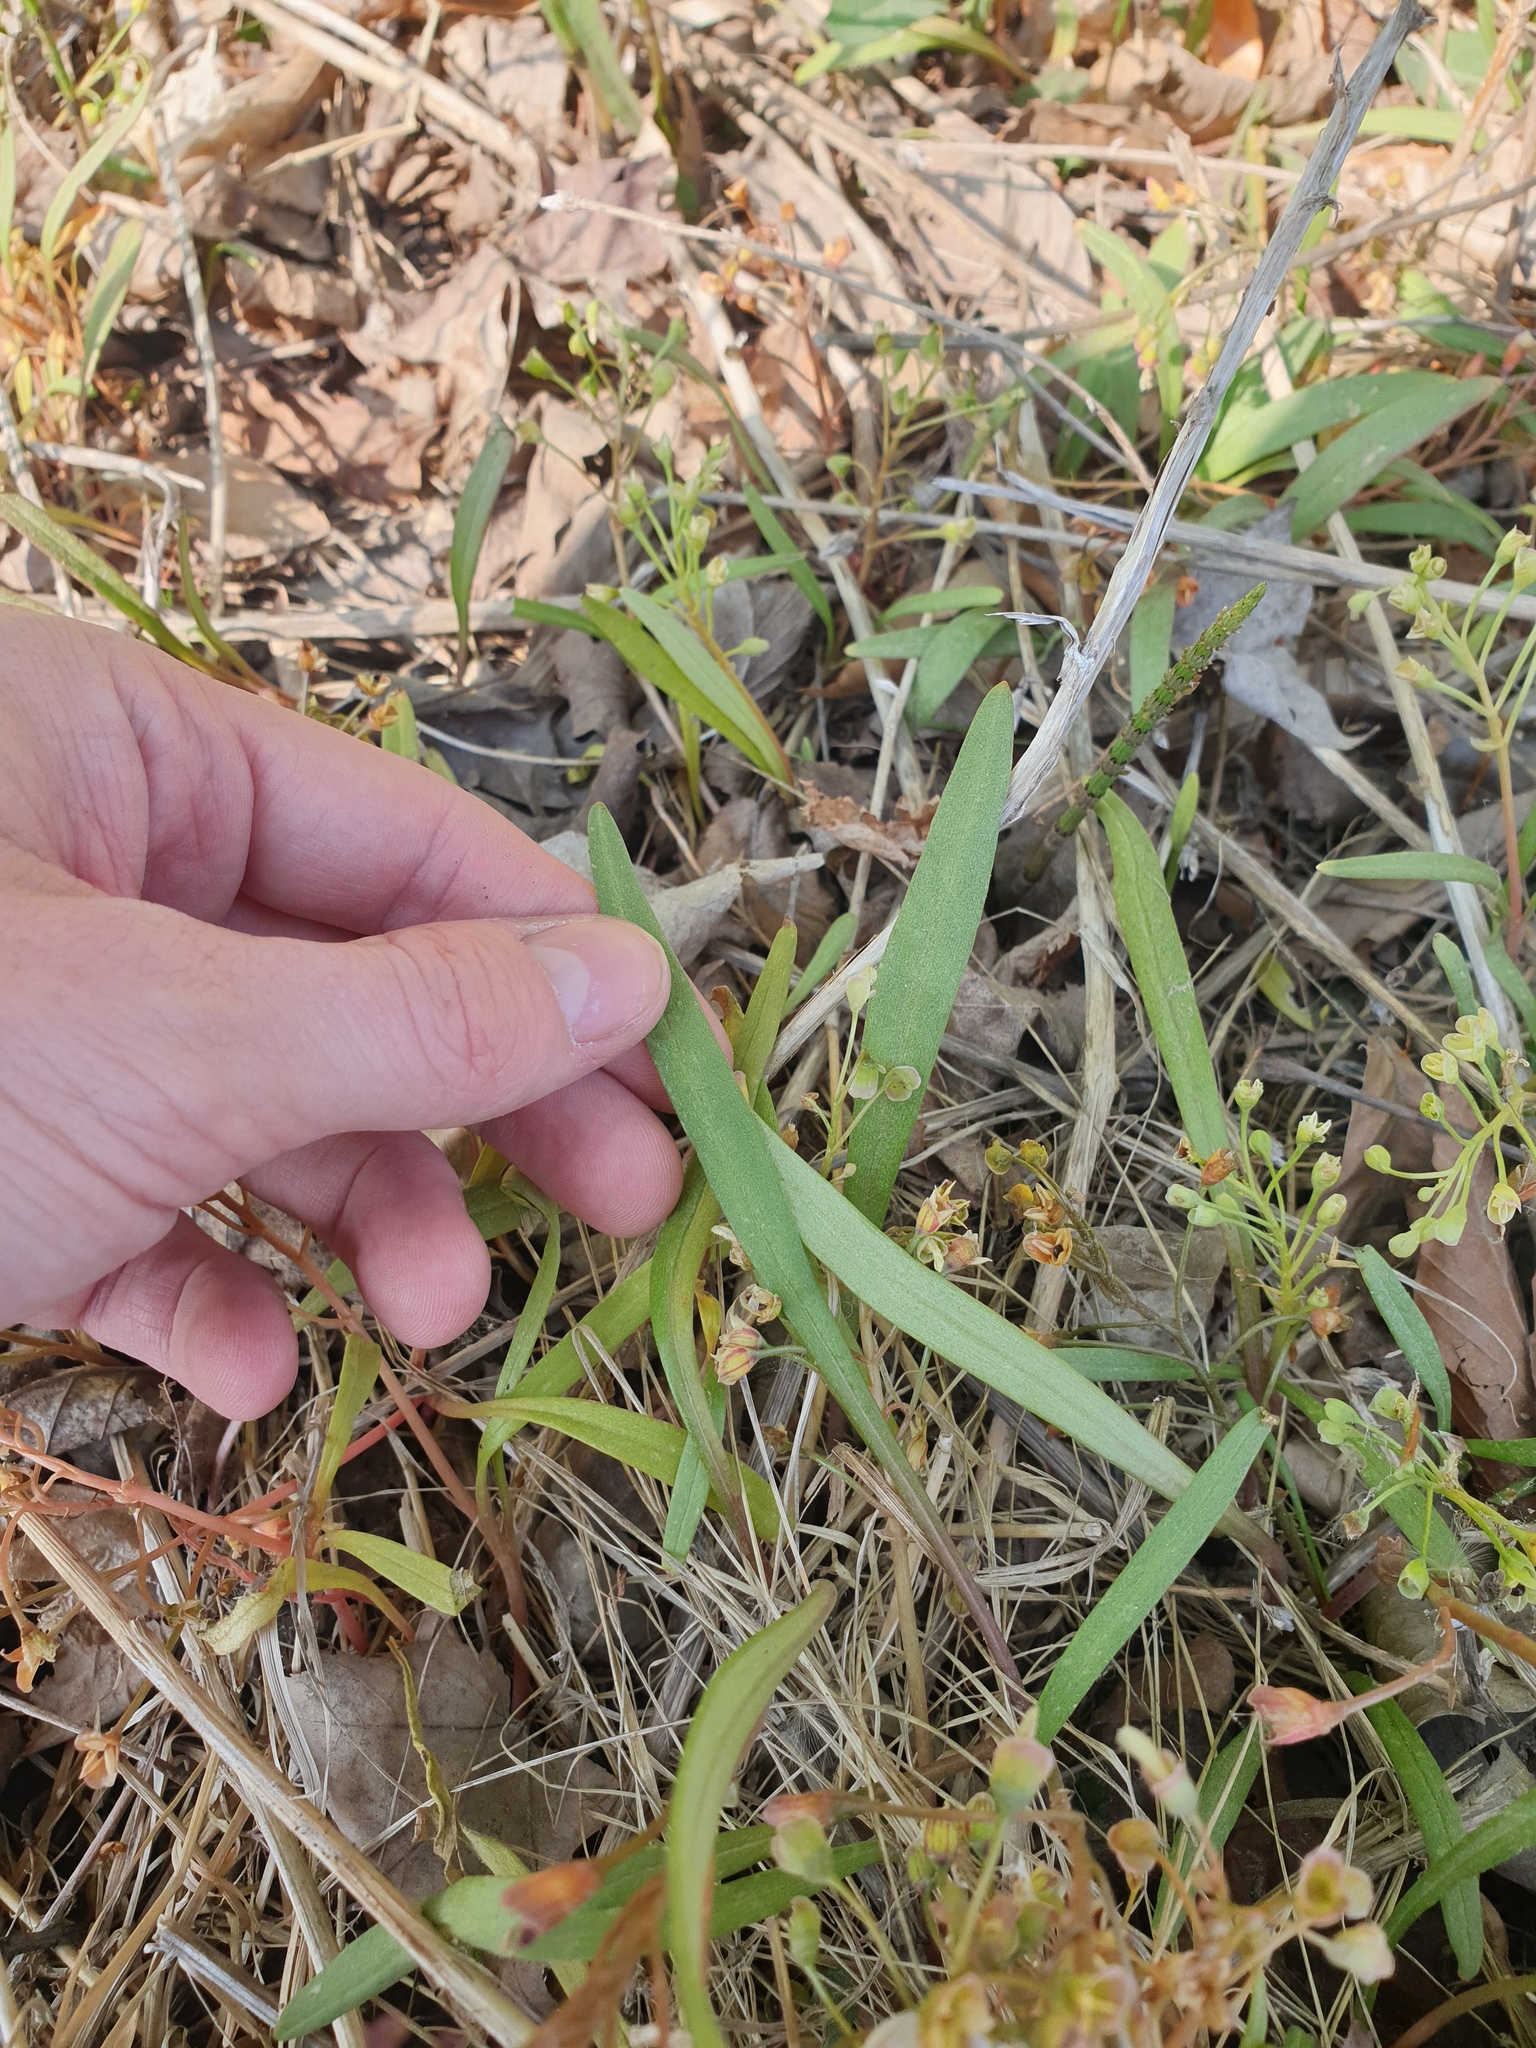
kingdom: Plantae
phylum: Tracheophyta
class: Magnoliopsida
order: Caryophyllales
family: Montiaceae
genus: Claytonia
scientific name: Claytonia virginica
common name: Virginia springbeauty
